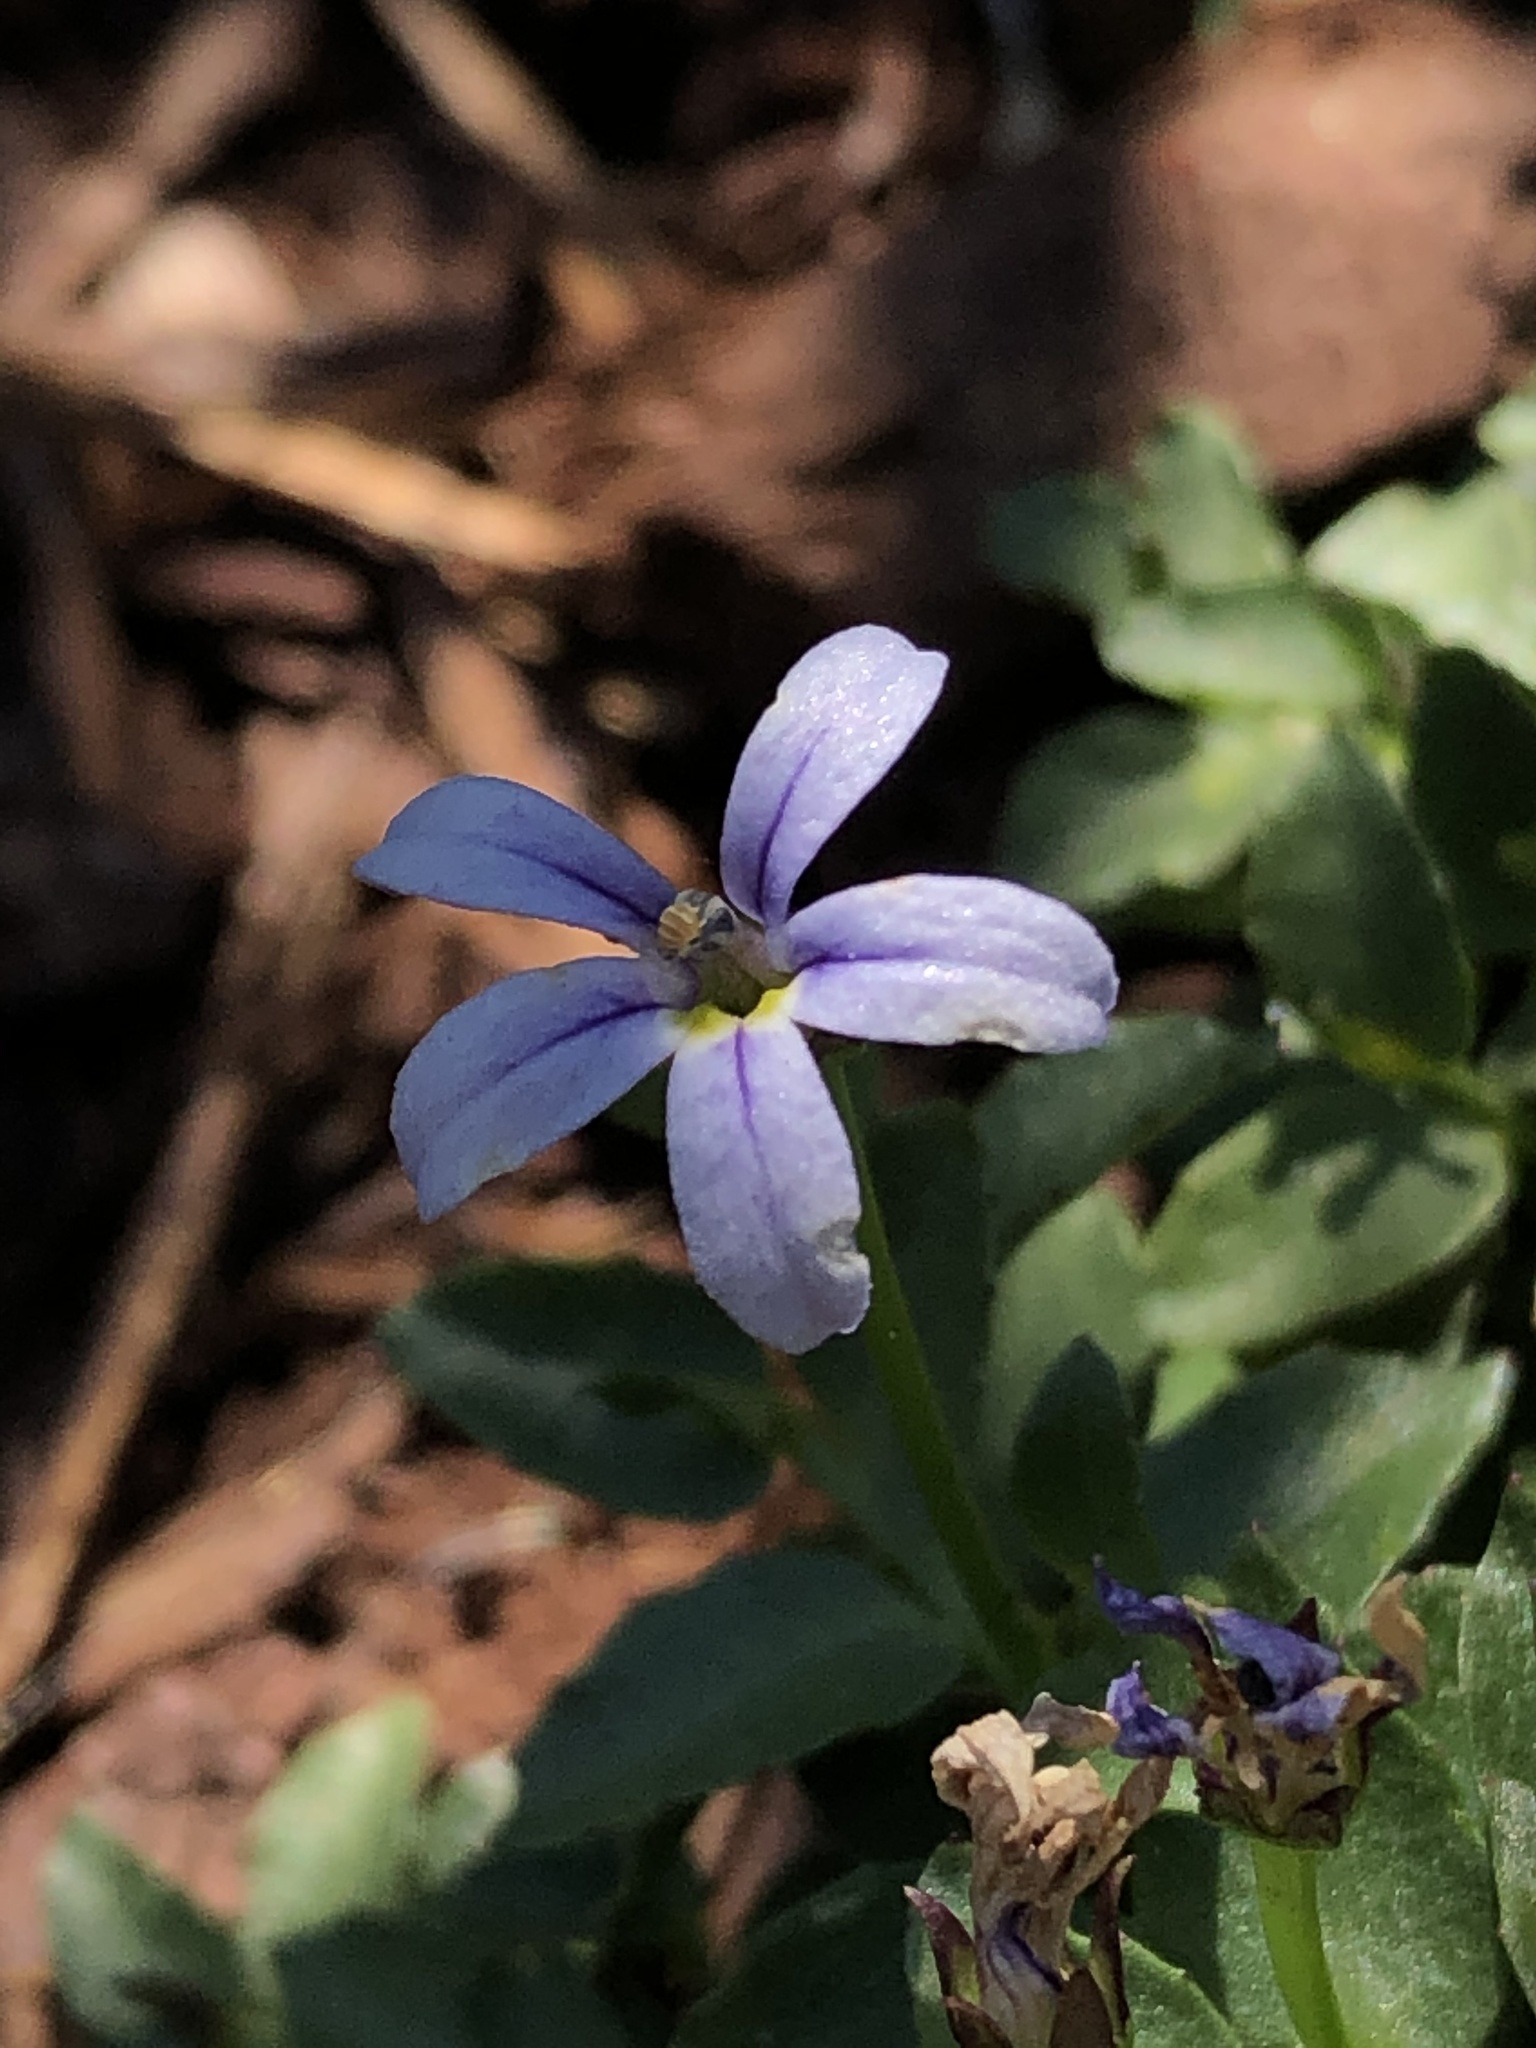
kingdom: Plantae
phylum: Tracheophyta
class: Magnoliopsida
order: Asterales
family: Campanulaceae
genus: Lobelia
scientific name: Lobelia pedunculata
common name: Matted pratia
